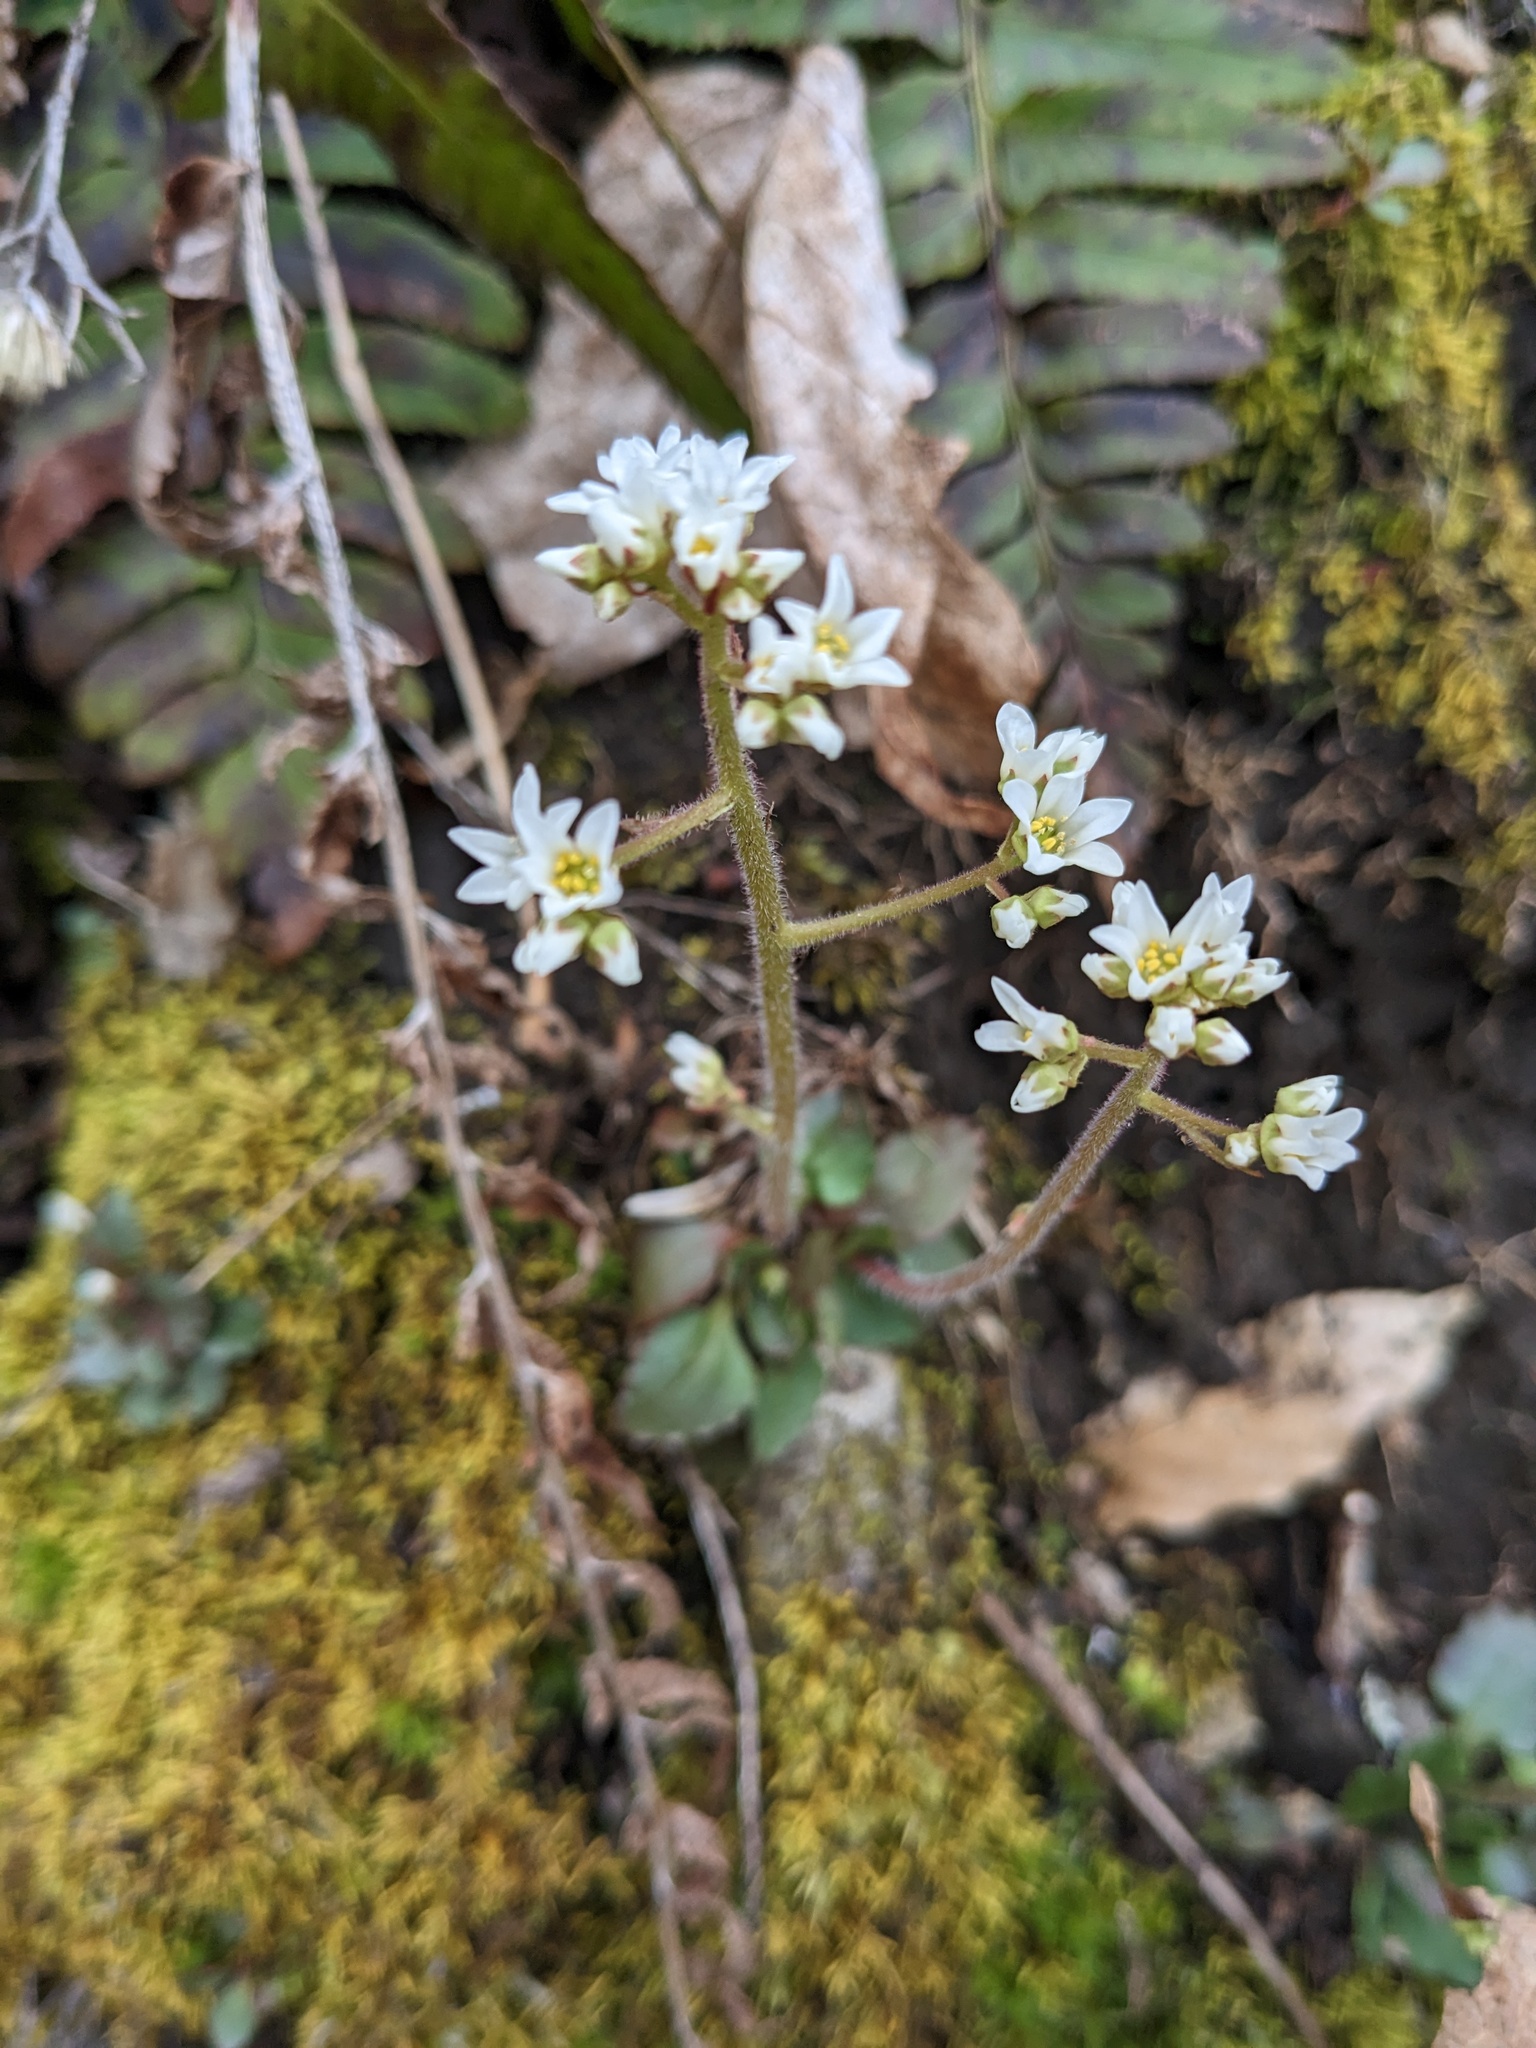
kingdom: Plantae
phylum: Tracheophyta
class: Magnoliopsida
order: Saxifragales
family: Saxifragaceae
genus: Micranthes
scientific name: Micranthes virginiensis
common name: Early saxifrage
